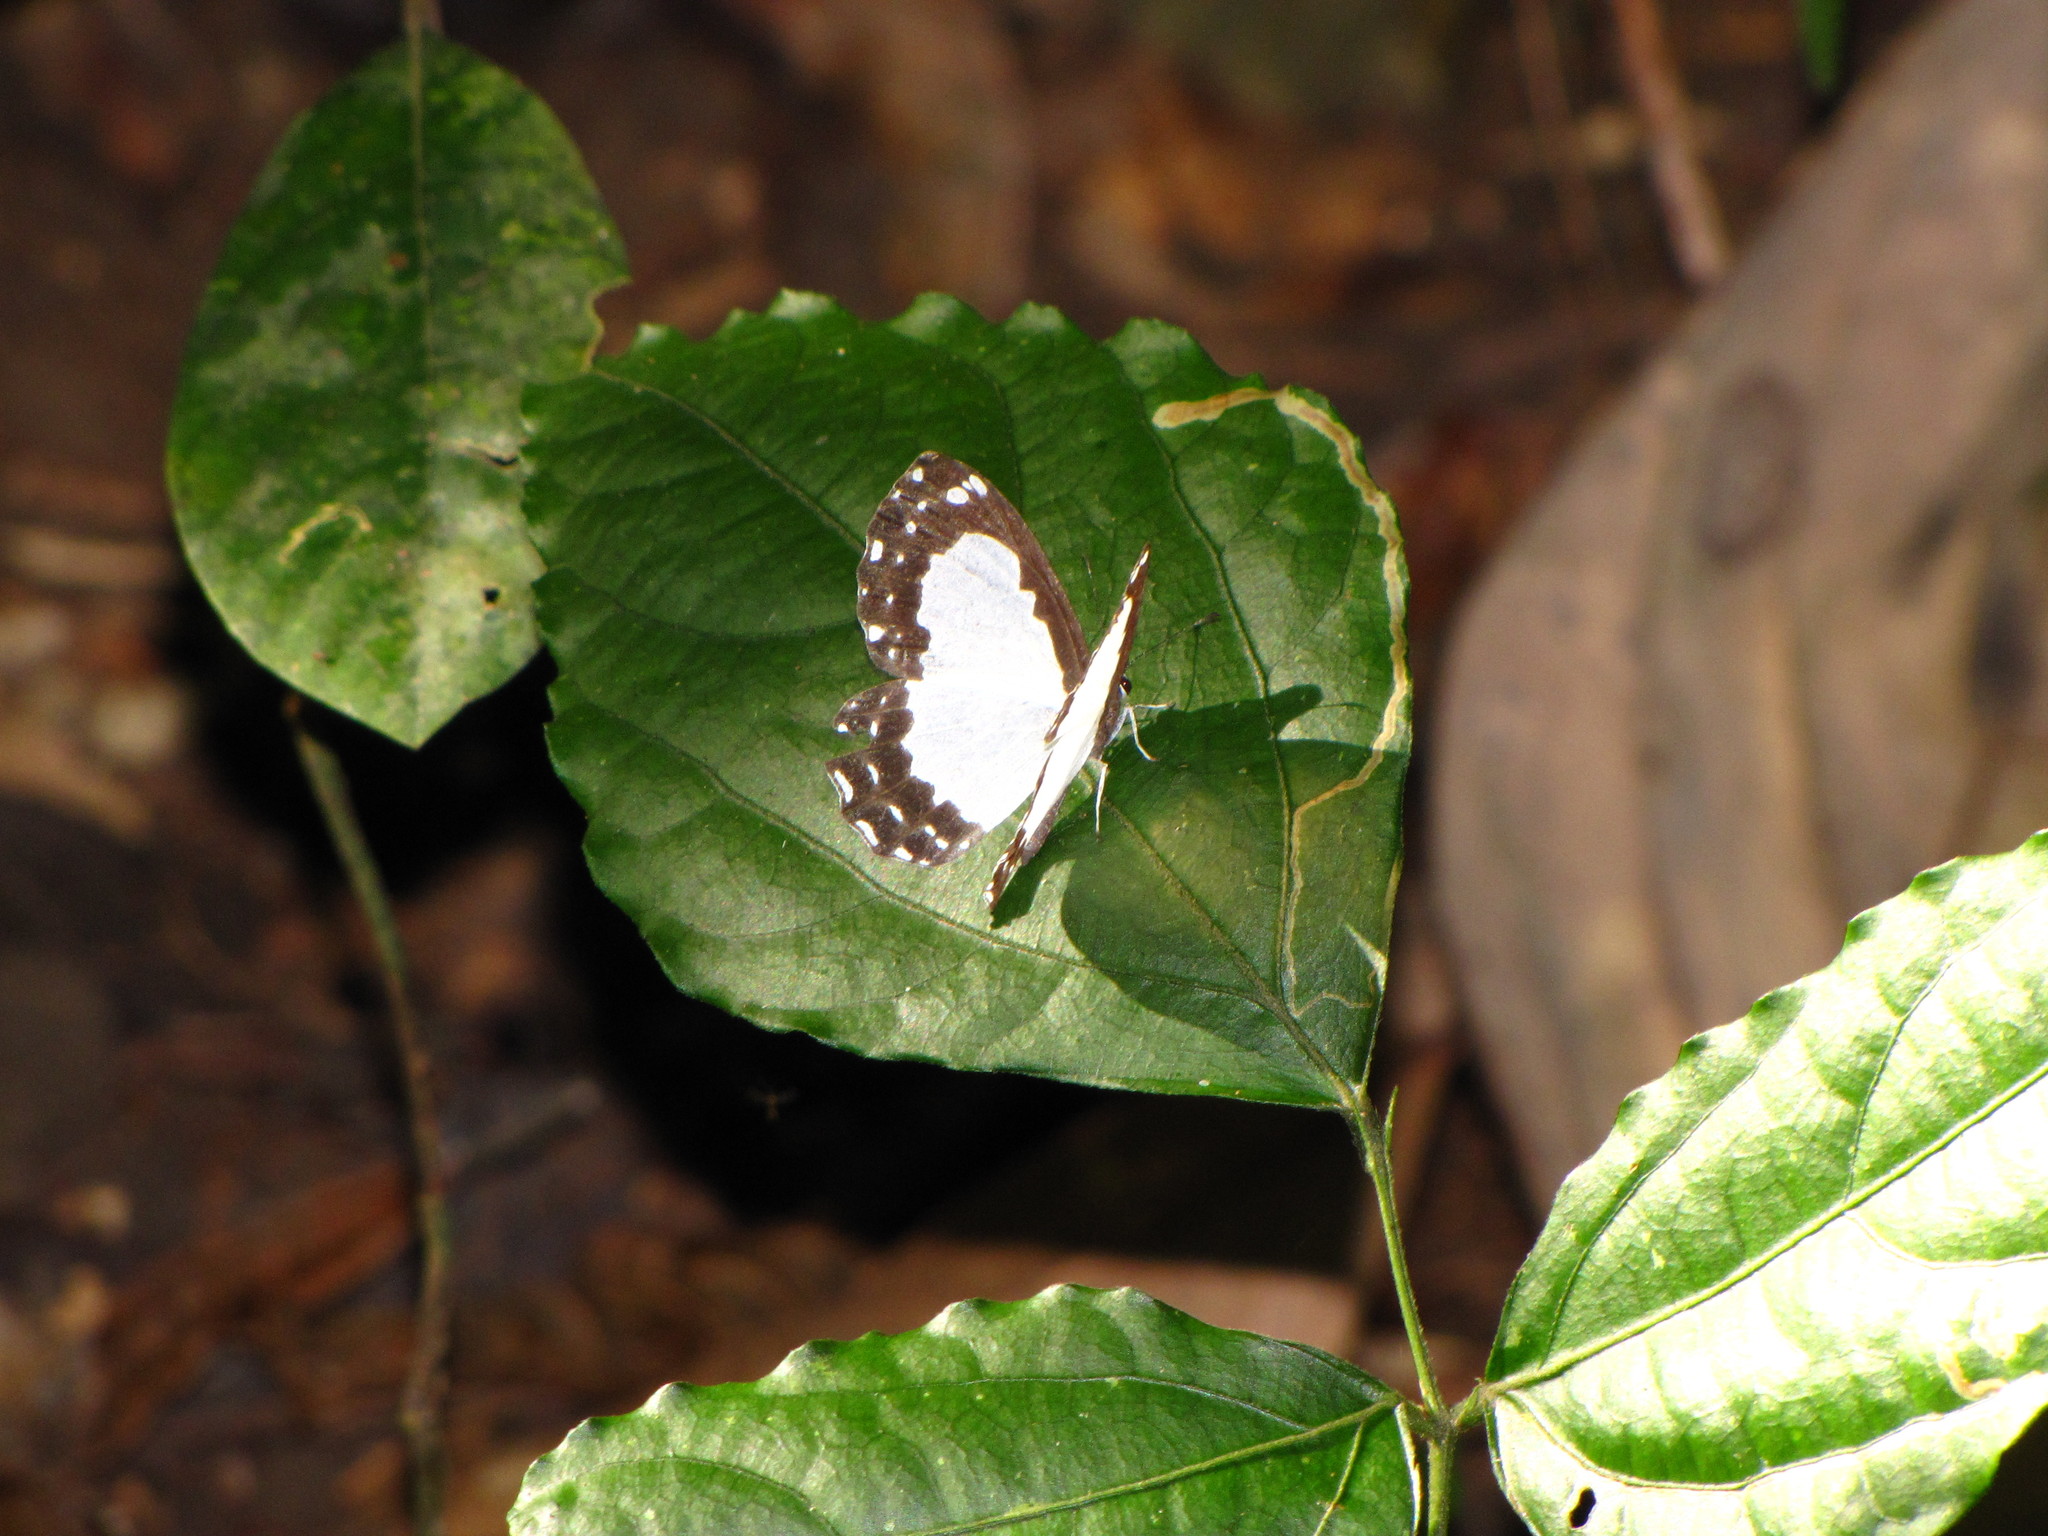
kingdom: Animalia
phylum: Arthropoda
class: Insecta
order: Lepidoptera
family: Riodinidae
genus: Stiboges
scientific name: Stiboges nymphidia
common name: Columbine
